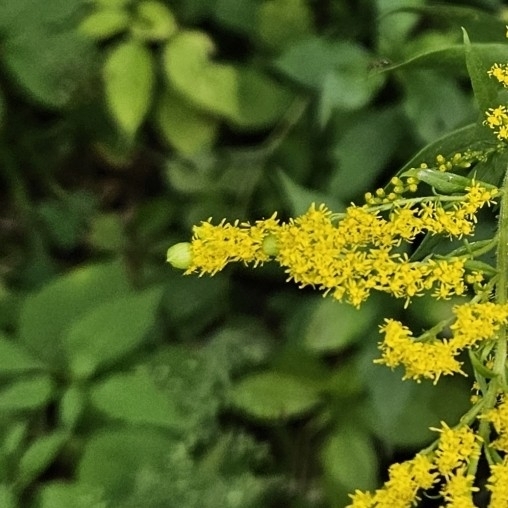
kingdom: Animalia
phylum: Arthropoda
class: Insecta
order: Diptera
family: Cecidomyiidae
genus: Schizomyia
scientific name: Schizomyia racemicola
